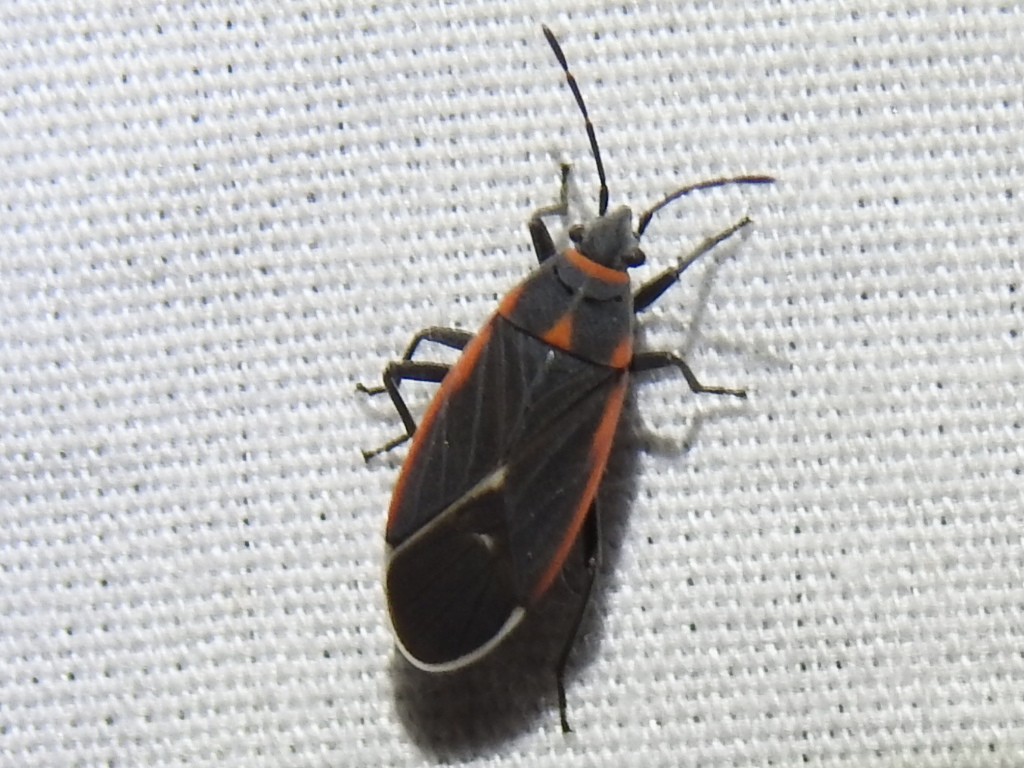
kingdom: Animalia
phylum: Arthropoda
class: Insecta
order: Hemiptera
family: Lygaeidae
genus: Melacoryphus
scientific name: Melacoryphus lateralis
